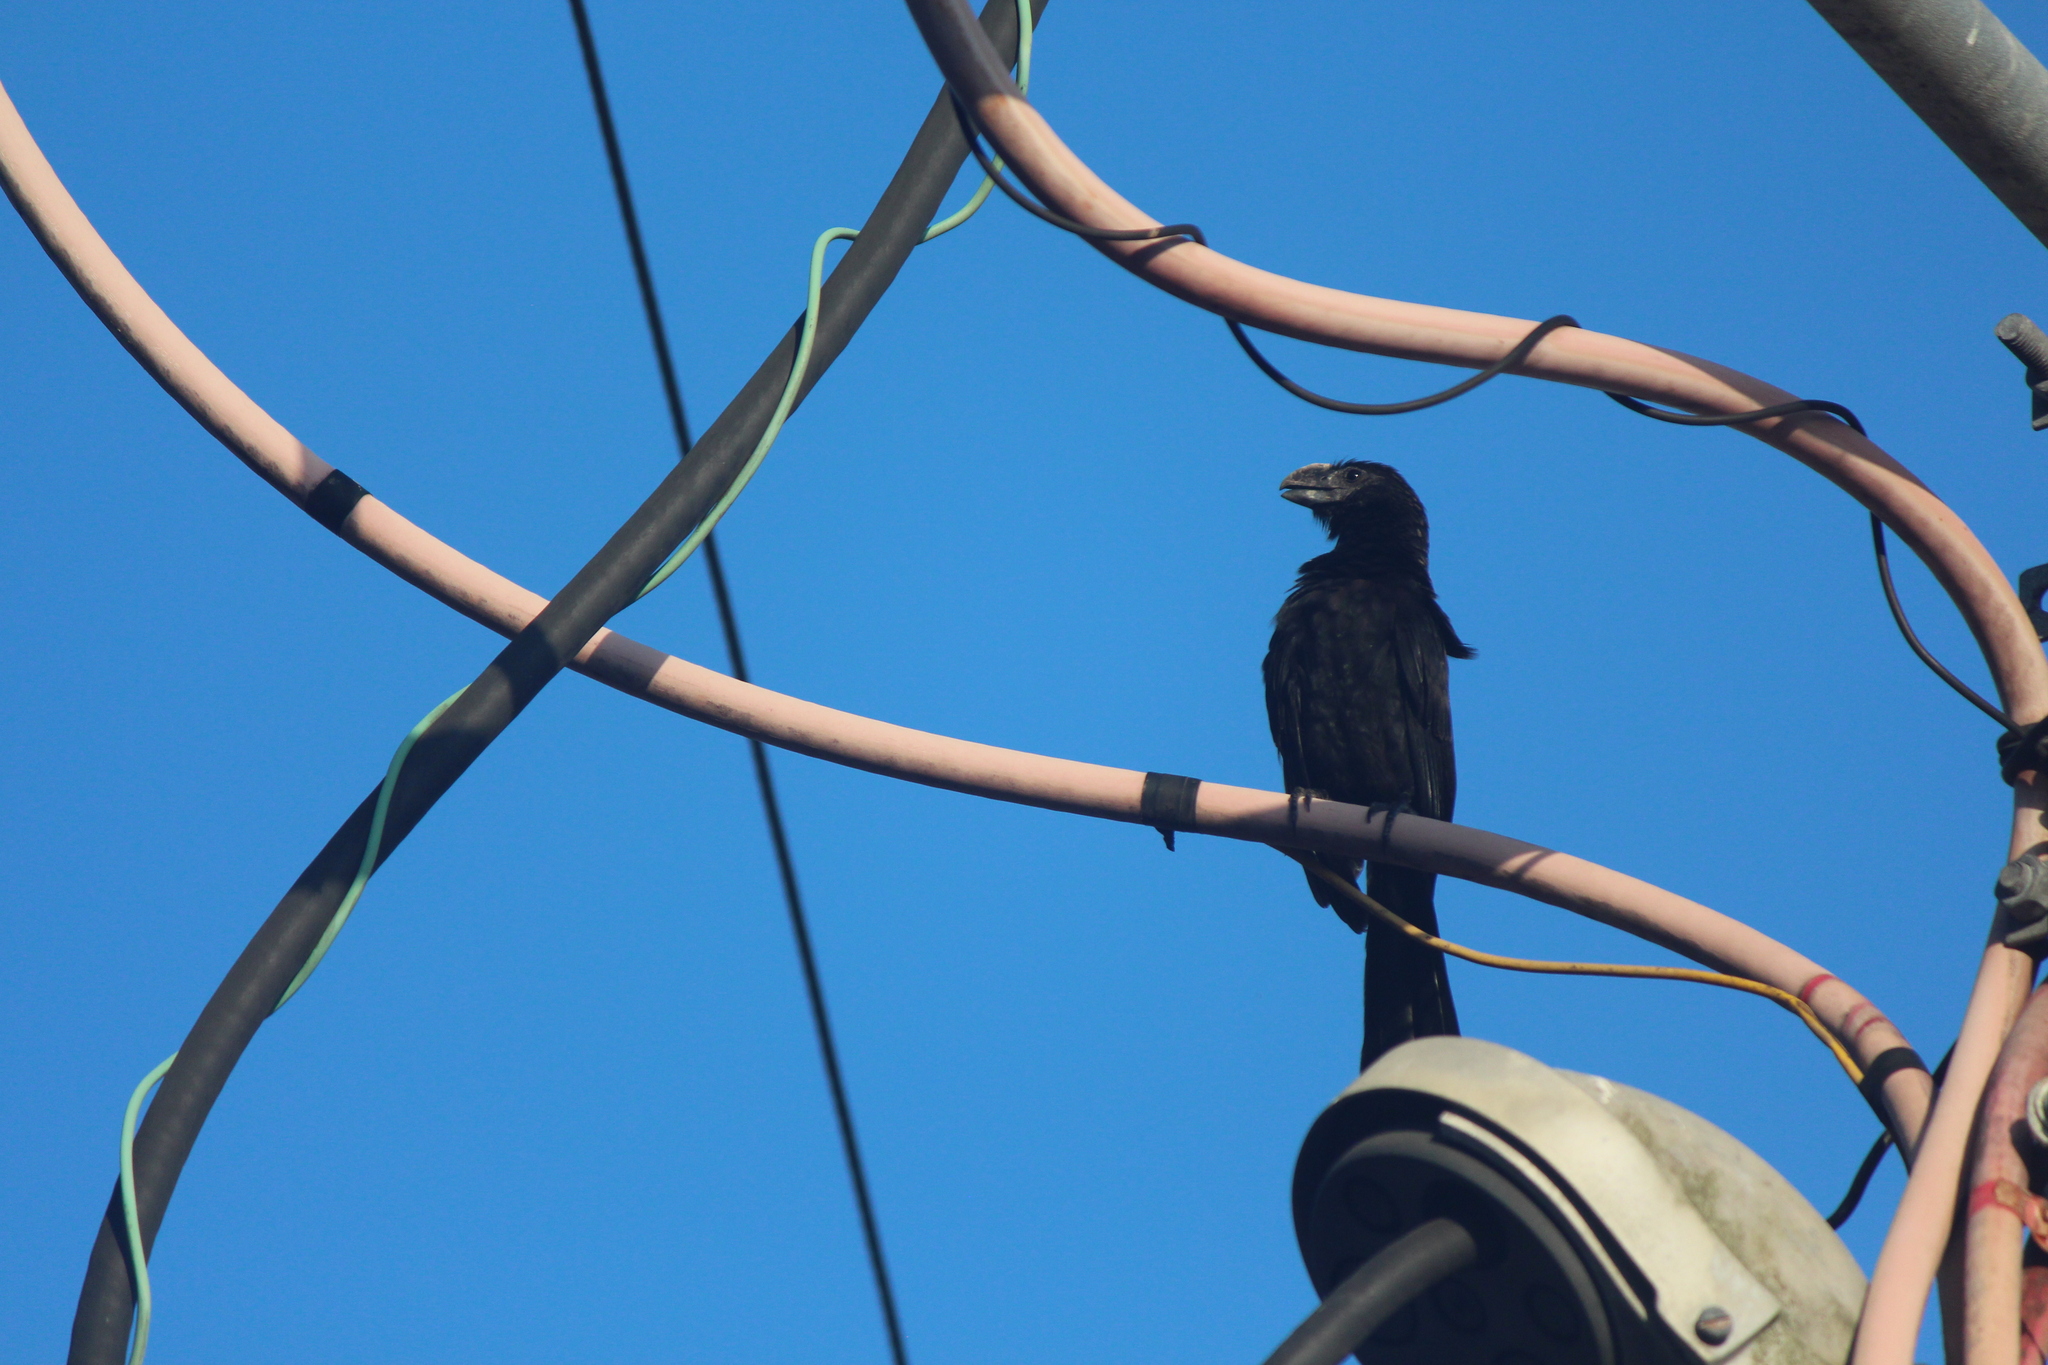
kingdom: Animalia
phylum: Chordata
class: Aves
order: Cuculiformes
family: Cuculidae
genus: Crotophaga
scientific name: Crotophaga ani
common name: Smooth-billed ani
